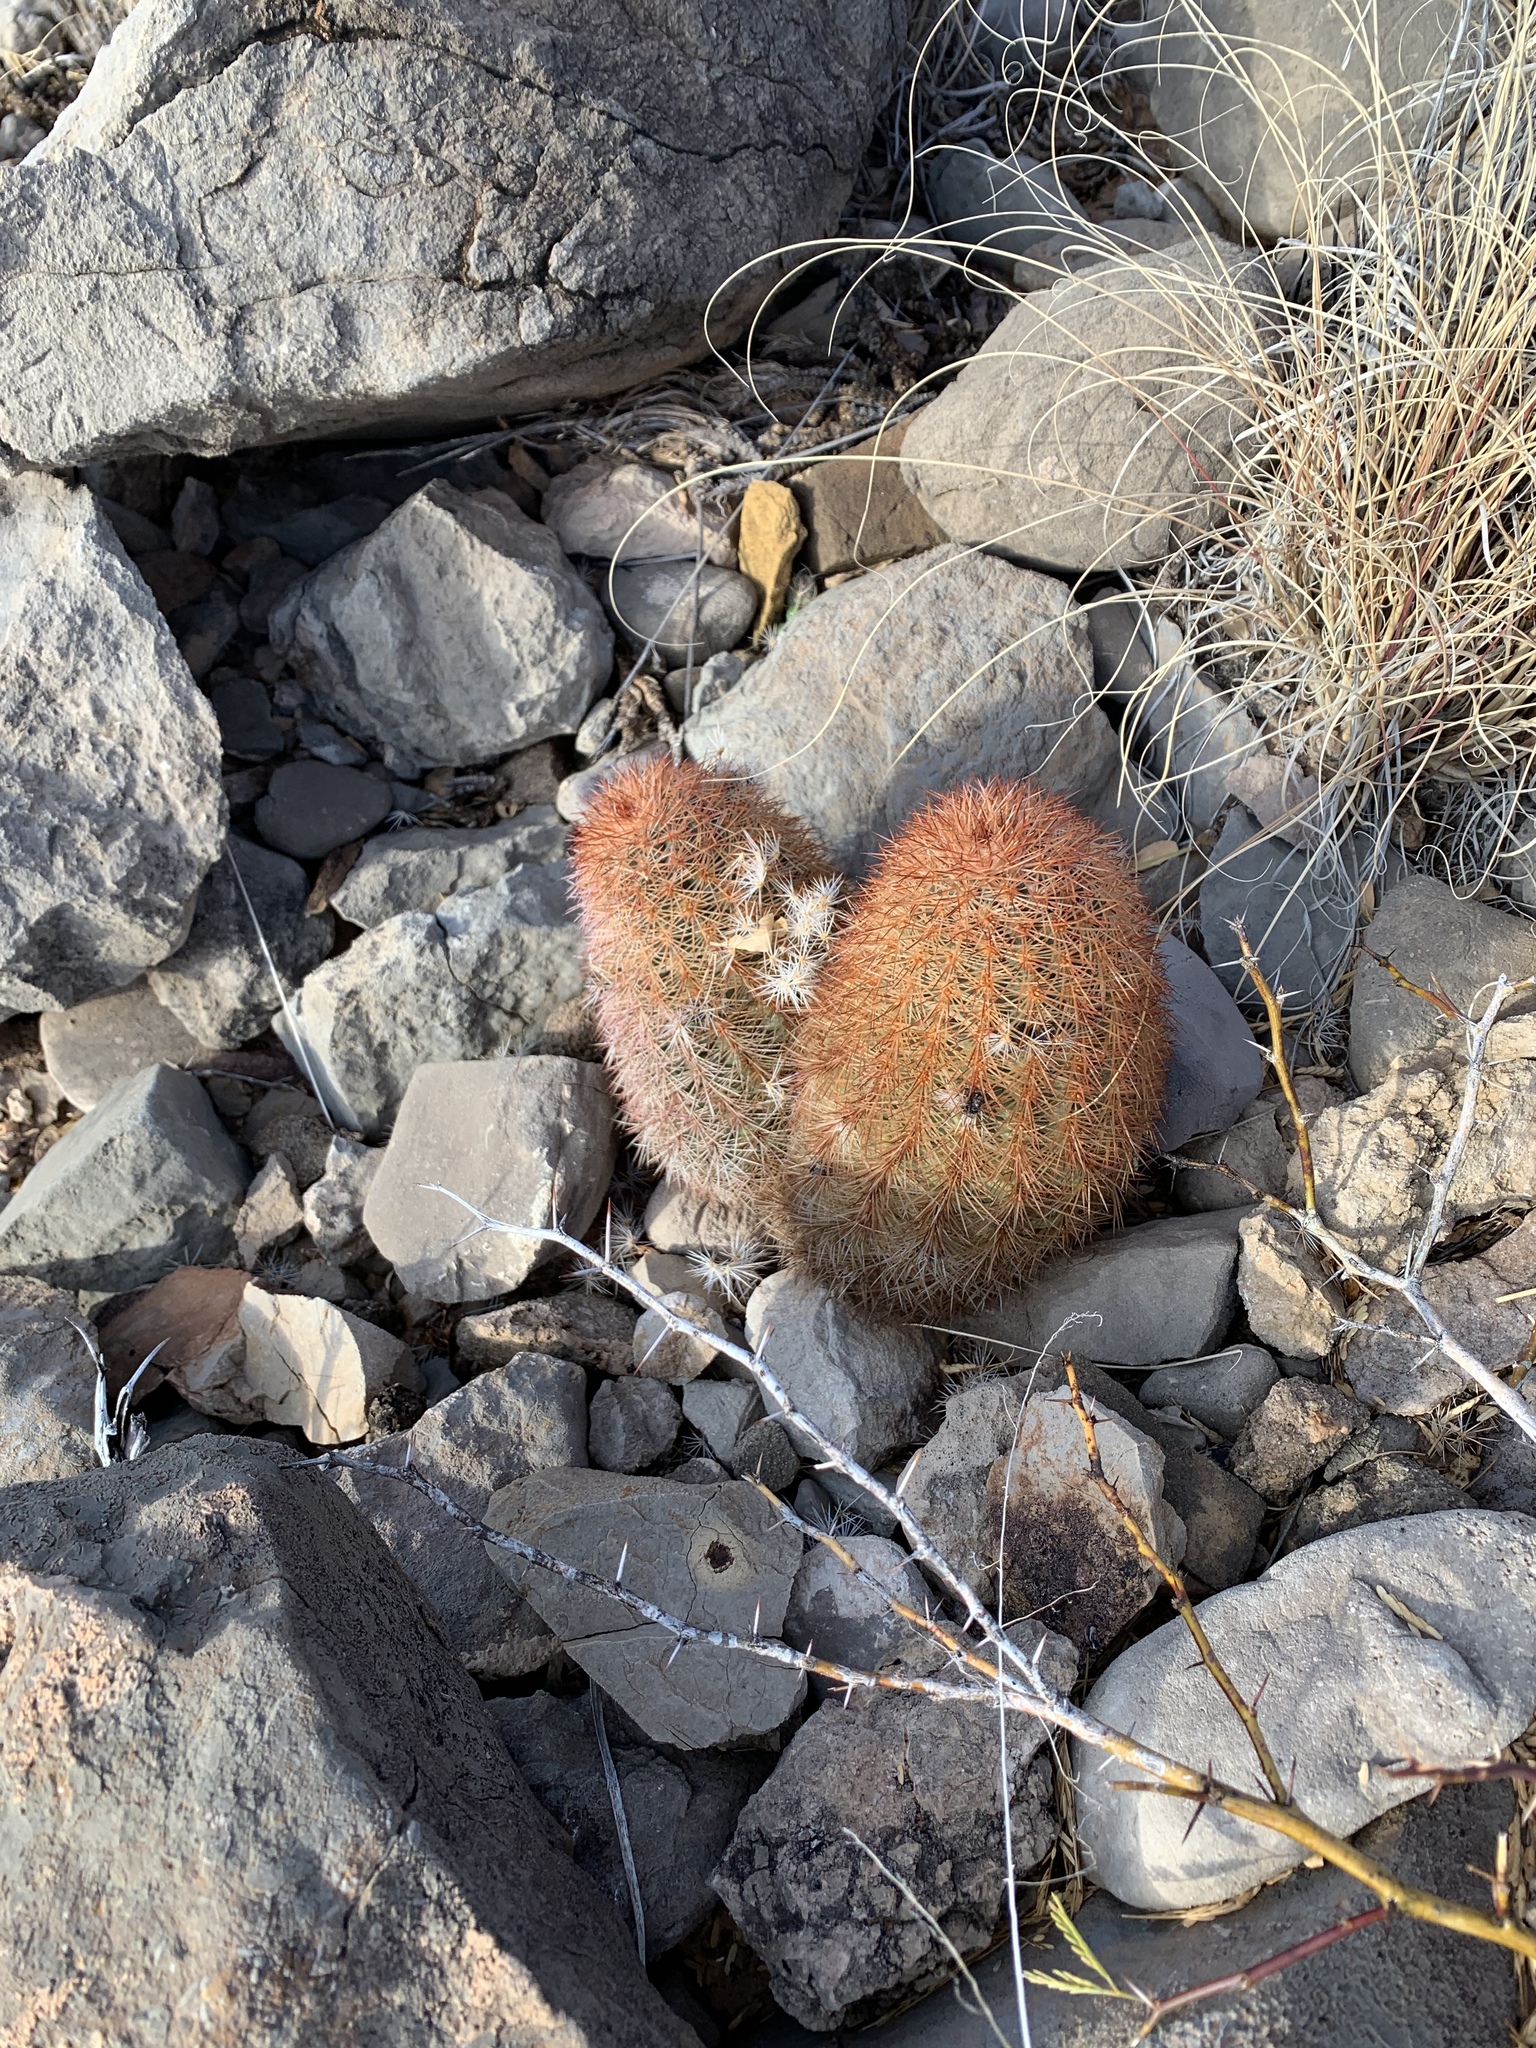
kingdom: Plantae
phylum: Tracheophyta
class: Magnoliopsida
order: Caryophyllales
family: Cactaceae
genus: Echinocereus
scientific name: Echinocereus dasyacanthus
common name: Spiny hedgehog cactus
